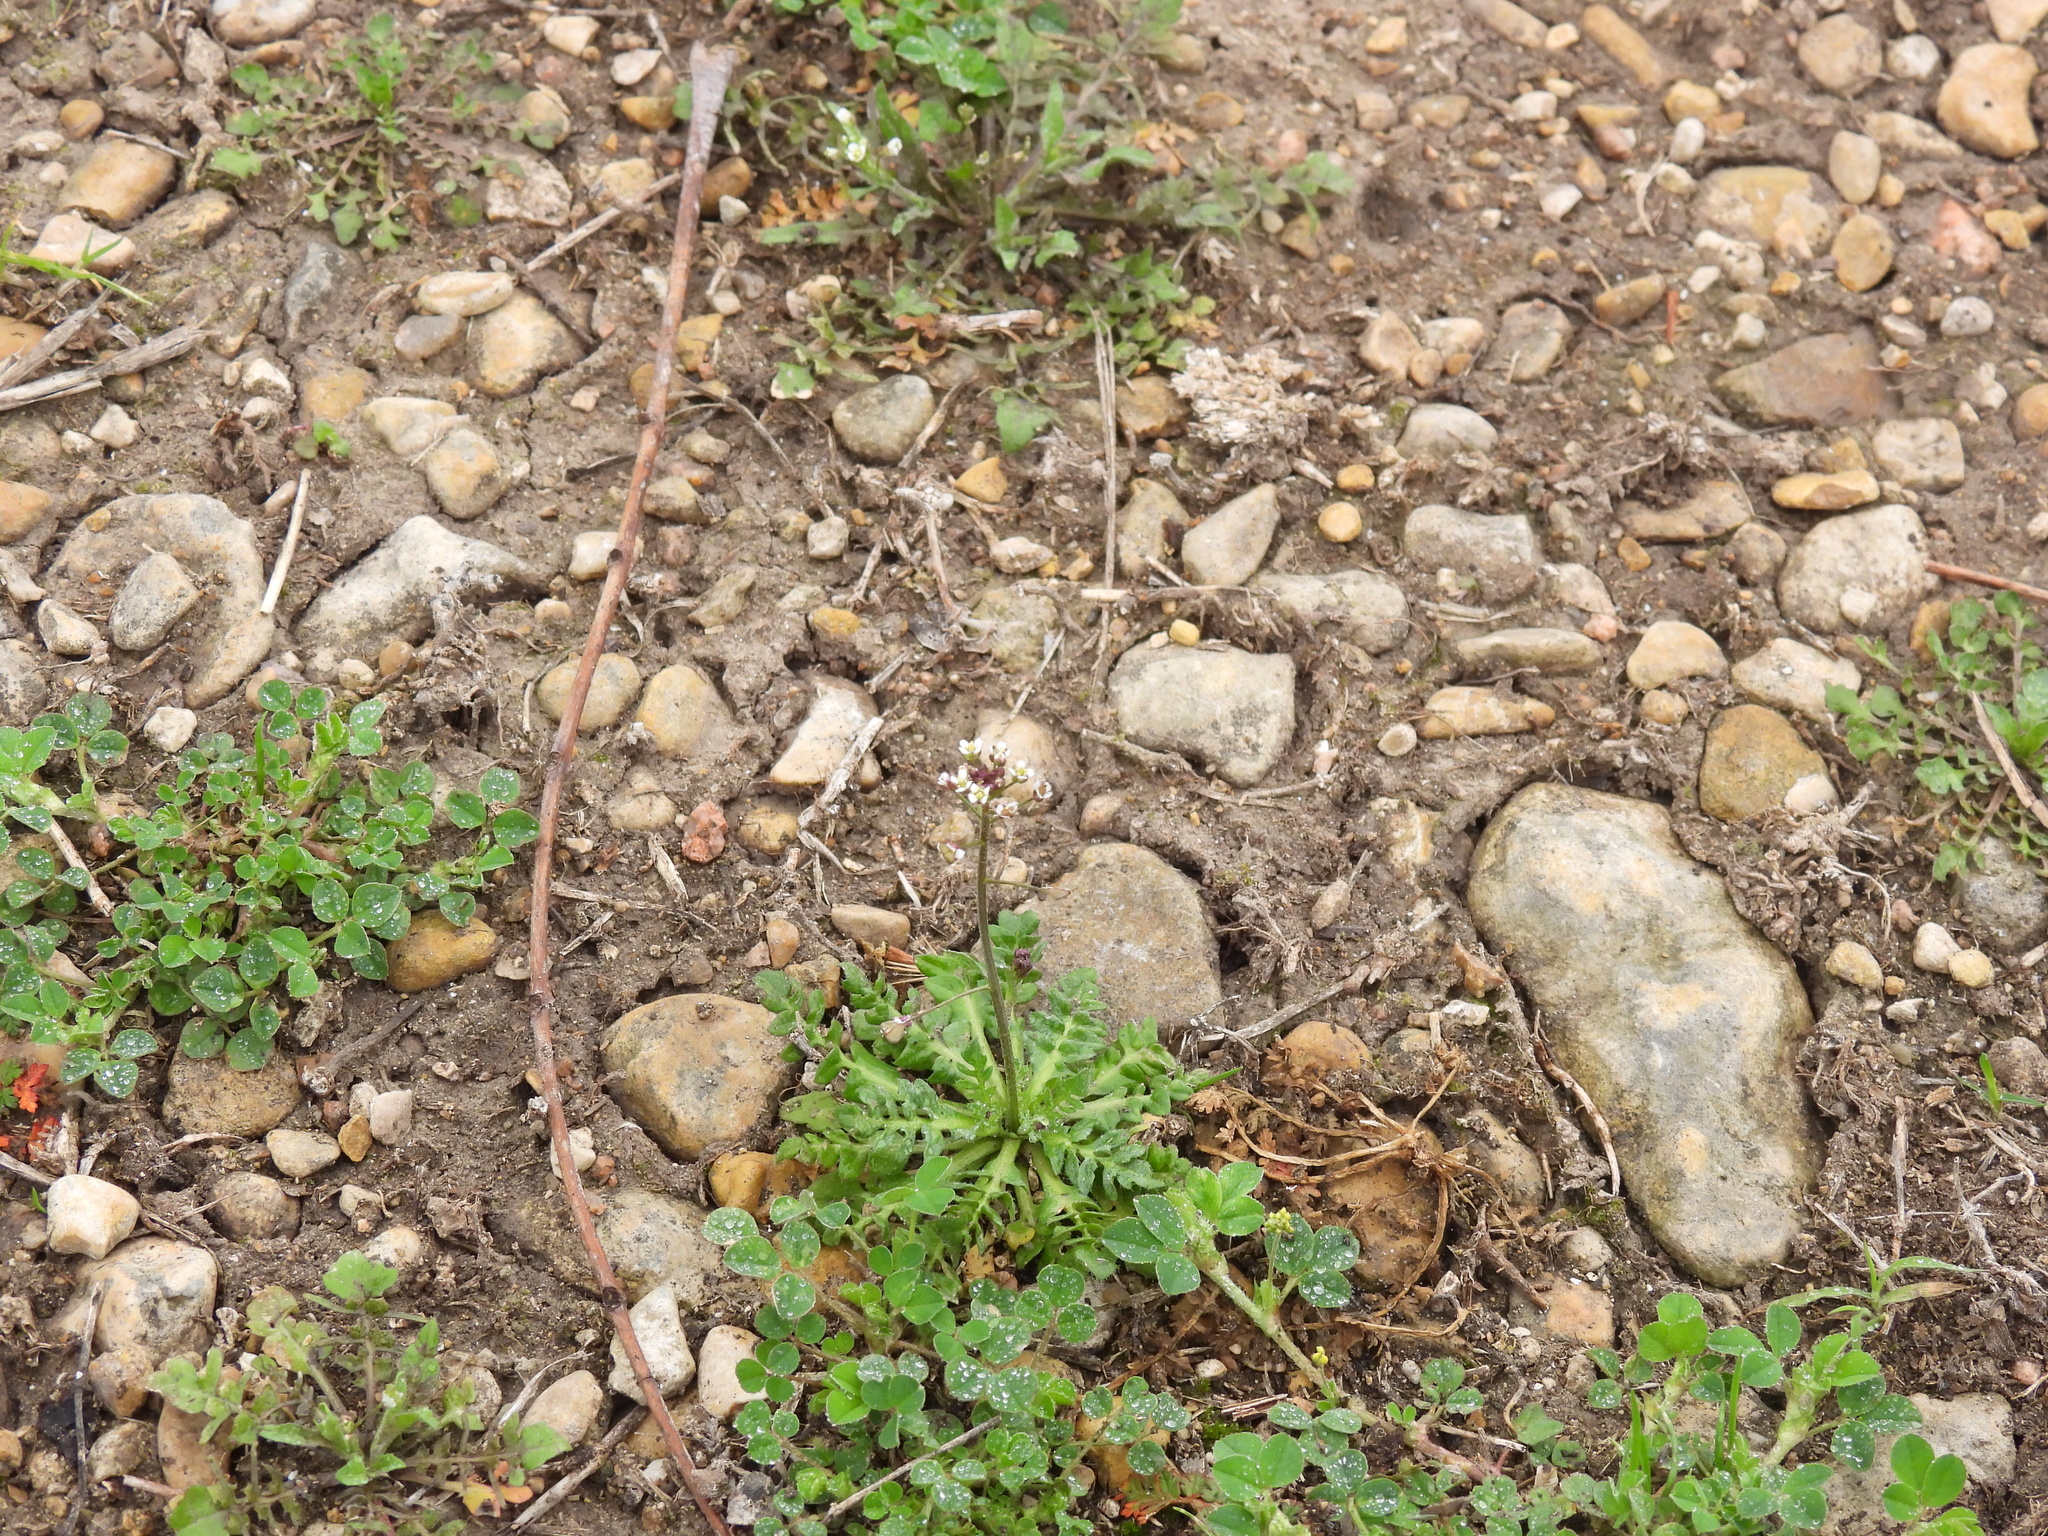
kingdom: Plantae
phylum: Tracheophyta
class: Magnoliopsida
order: Brassicales
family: Brassicaceae
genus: Capsella
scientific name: Capsella bursa-pastoris
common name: Shepherd's purse
